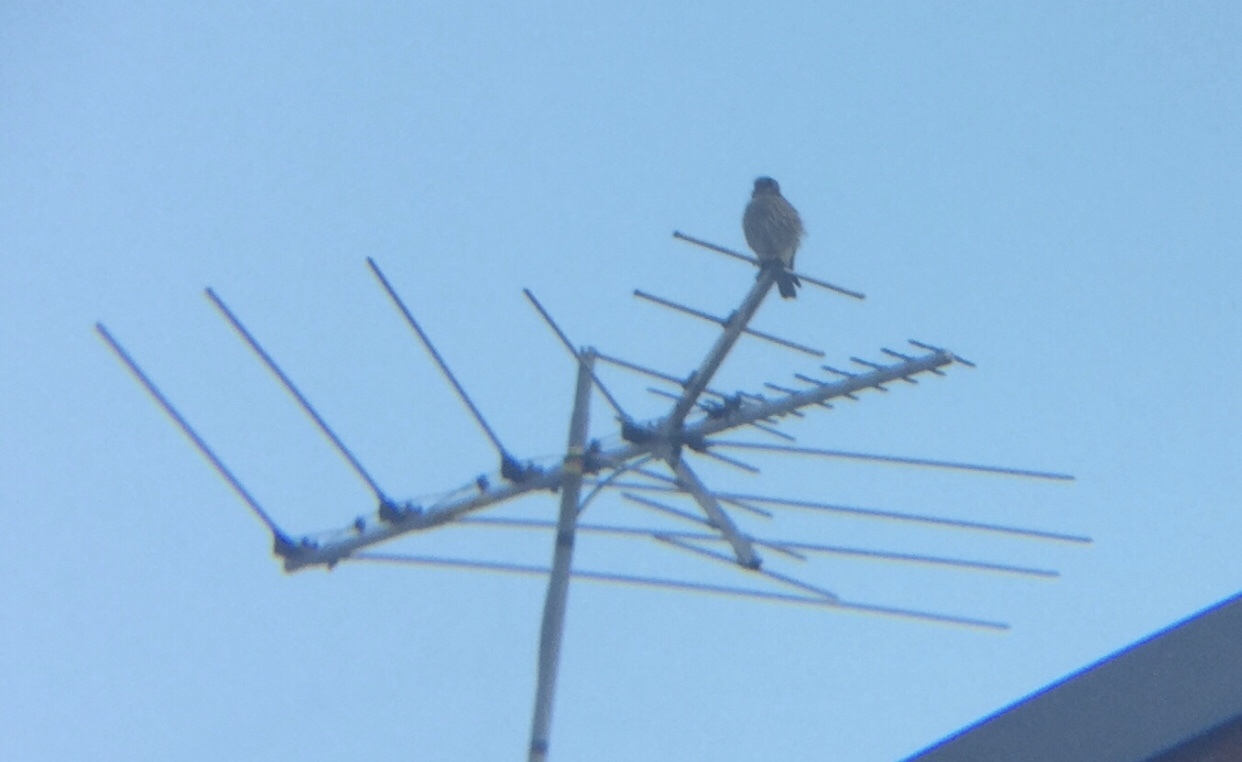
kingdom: Animalia
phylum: Chordata
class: Aves
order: Falconiformes
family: Falconidae
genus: Falco
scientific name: Falco sparverius
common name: American kestrel
